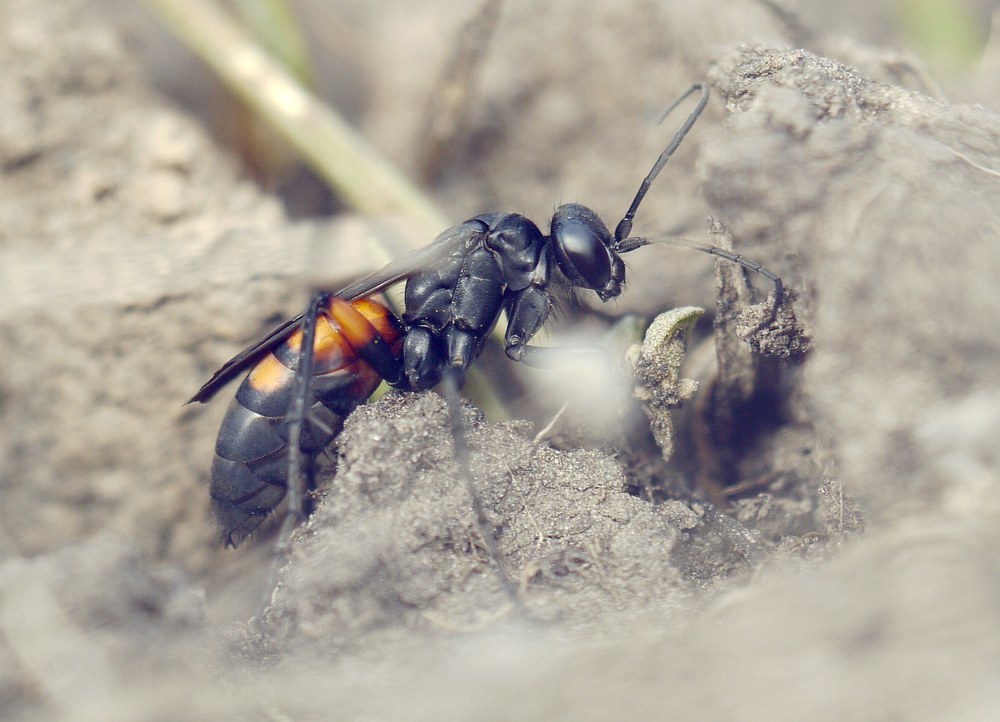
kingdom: Animalia
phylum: Arthropoda
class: Insecta
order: Hymenoptera
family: Pompilidae
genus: Anoplius
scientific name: Anoplius viaticus
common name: Black banded spider wasp
